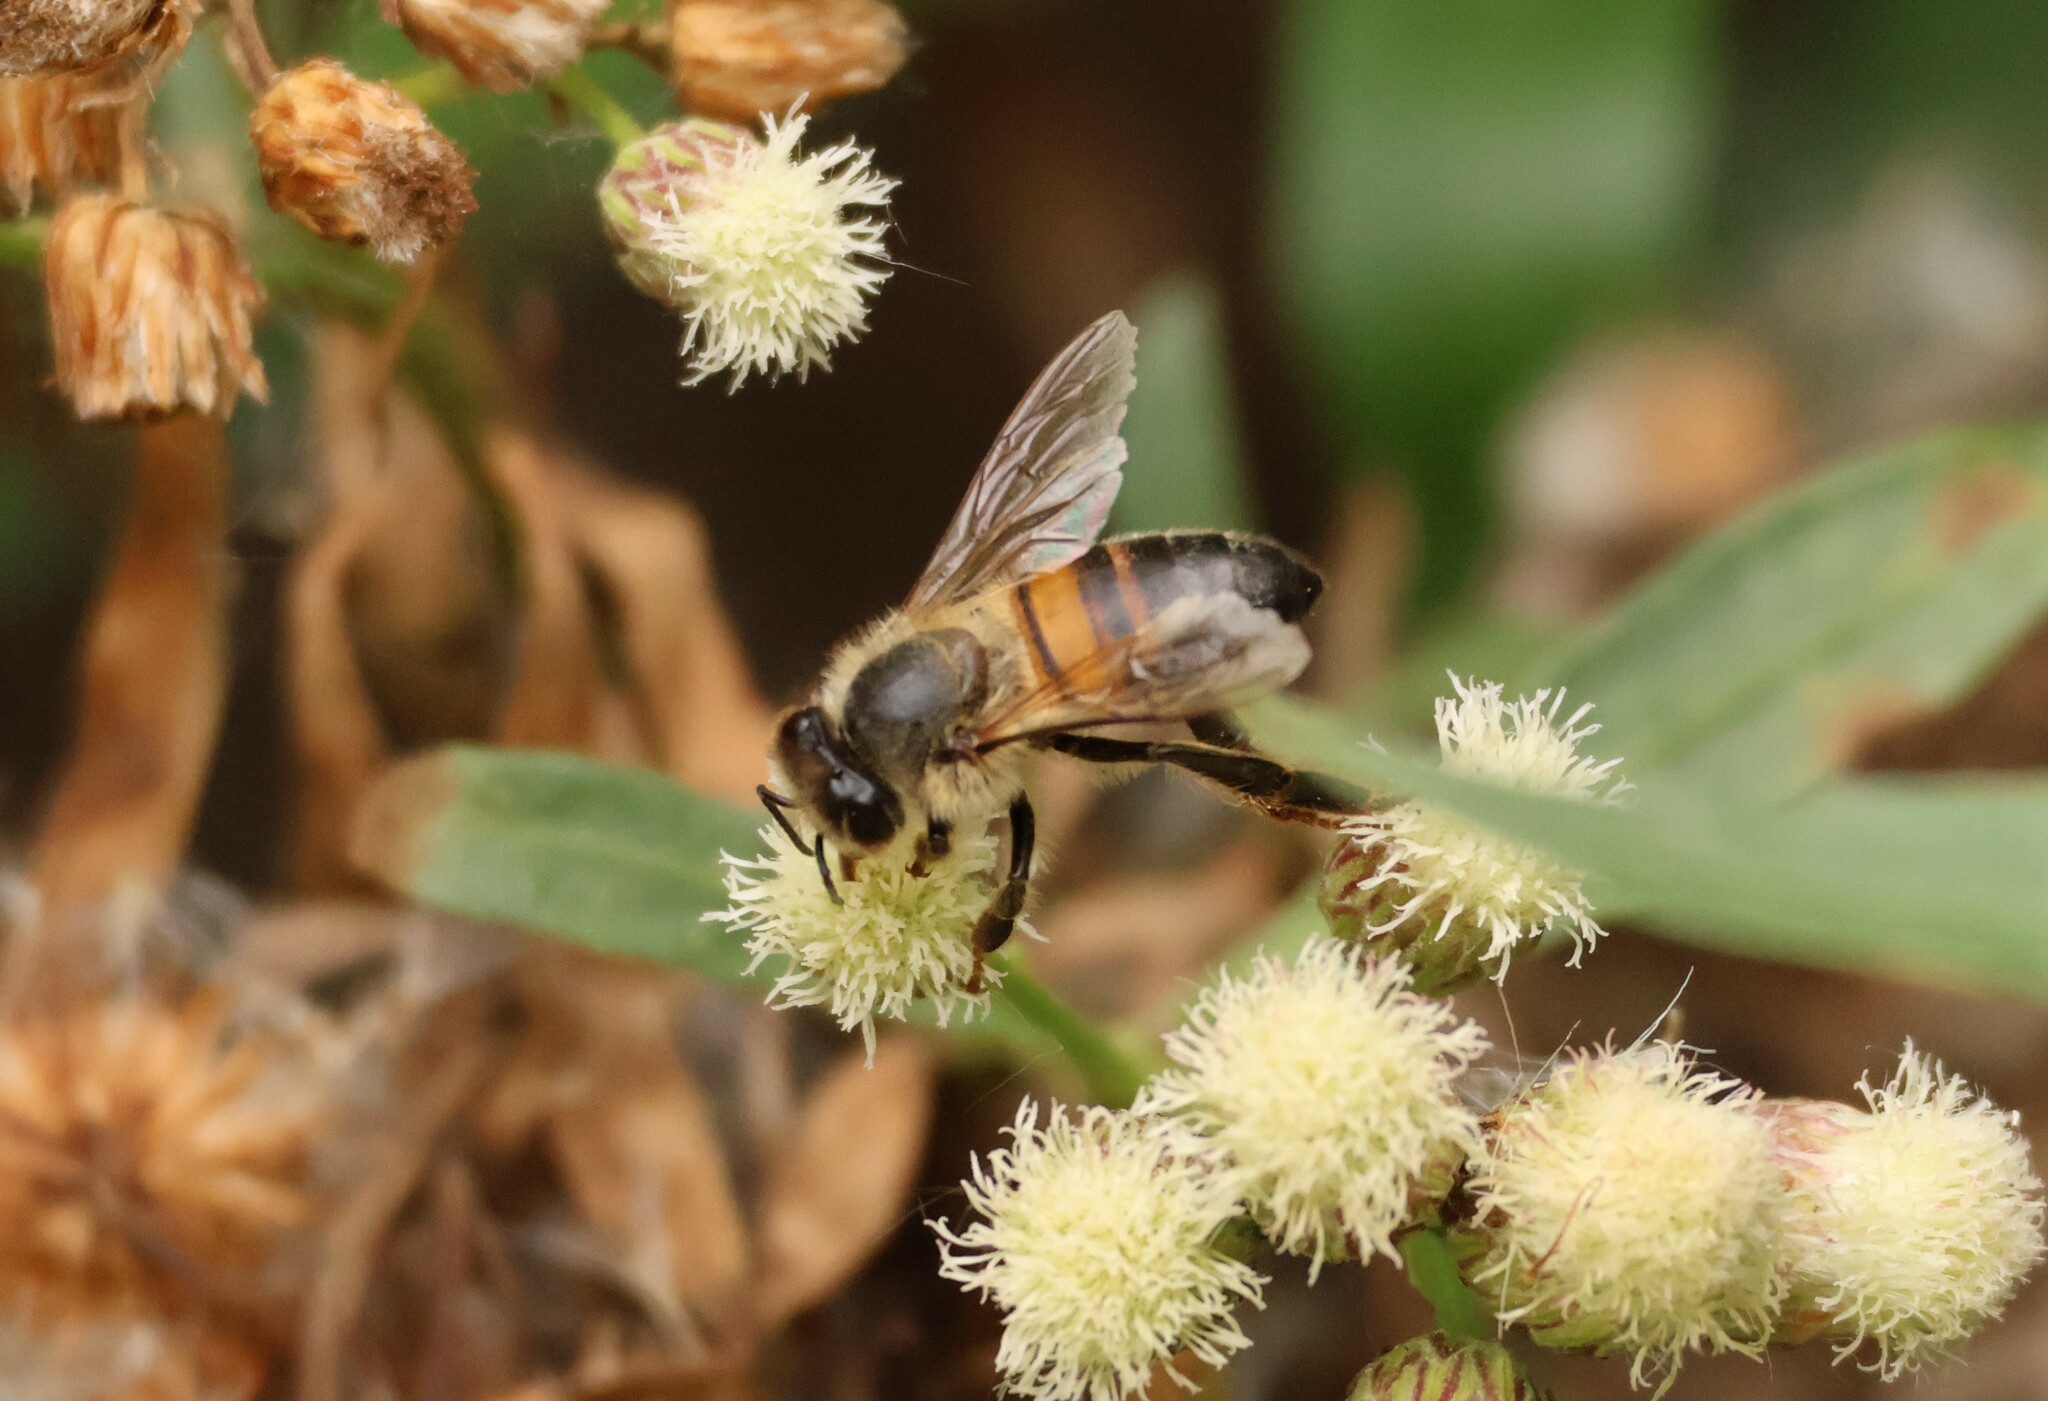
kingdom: Animalia
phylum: Arthropoda
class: Insecta
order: Hymenoptera
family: Apidae
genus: Apis
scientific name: Apis mellifera
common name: Honey bee
